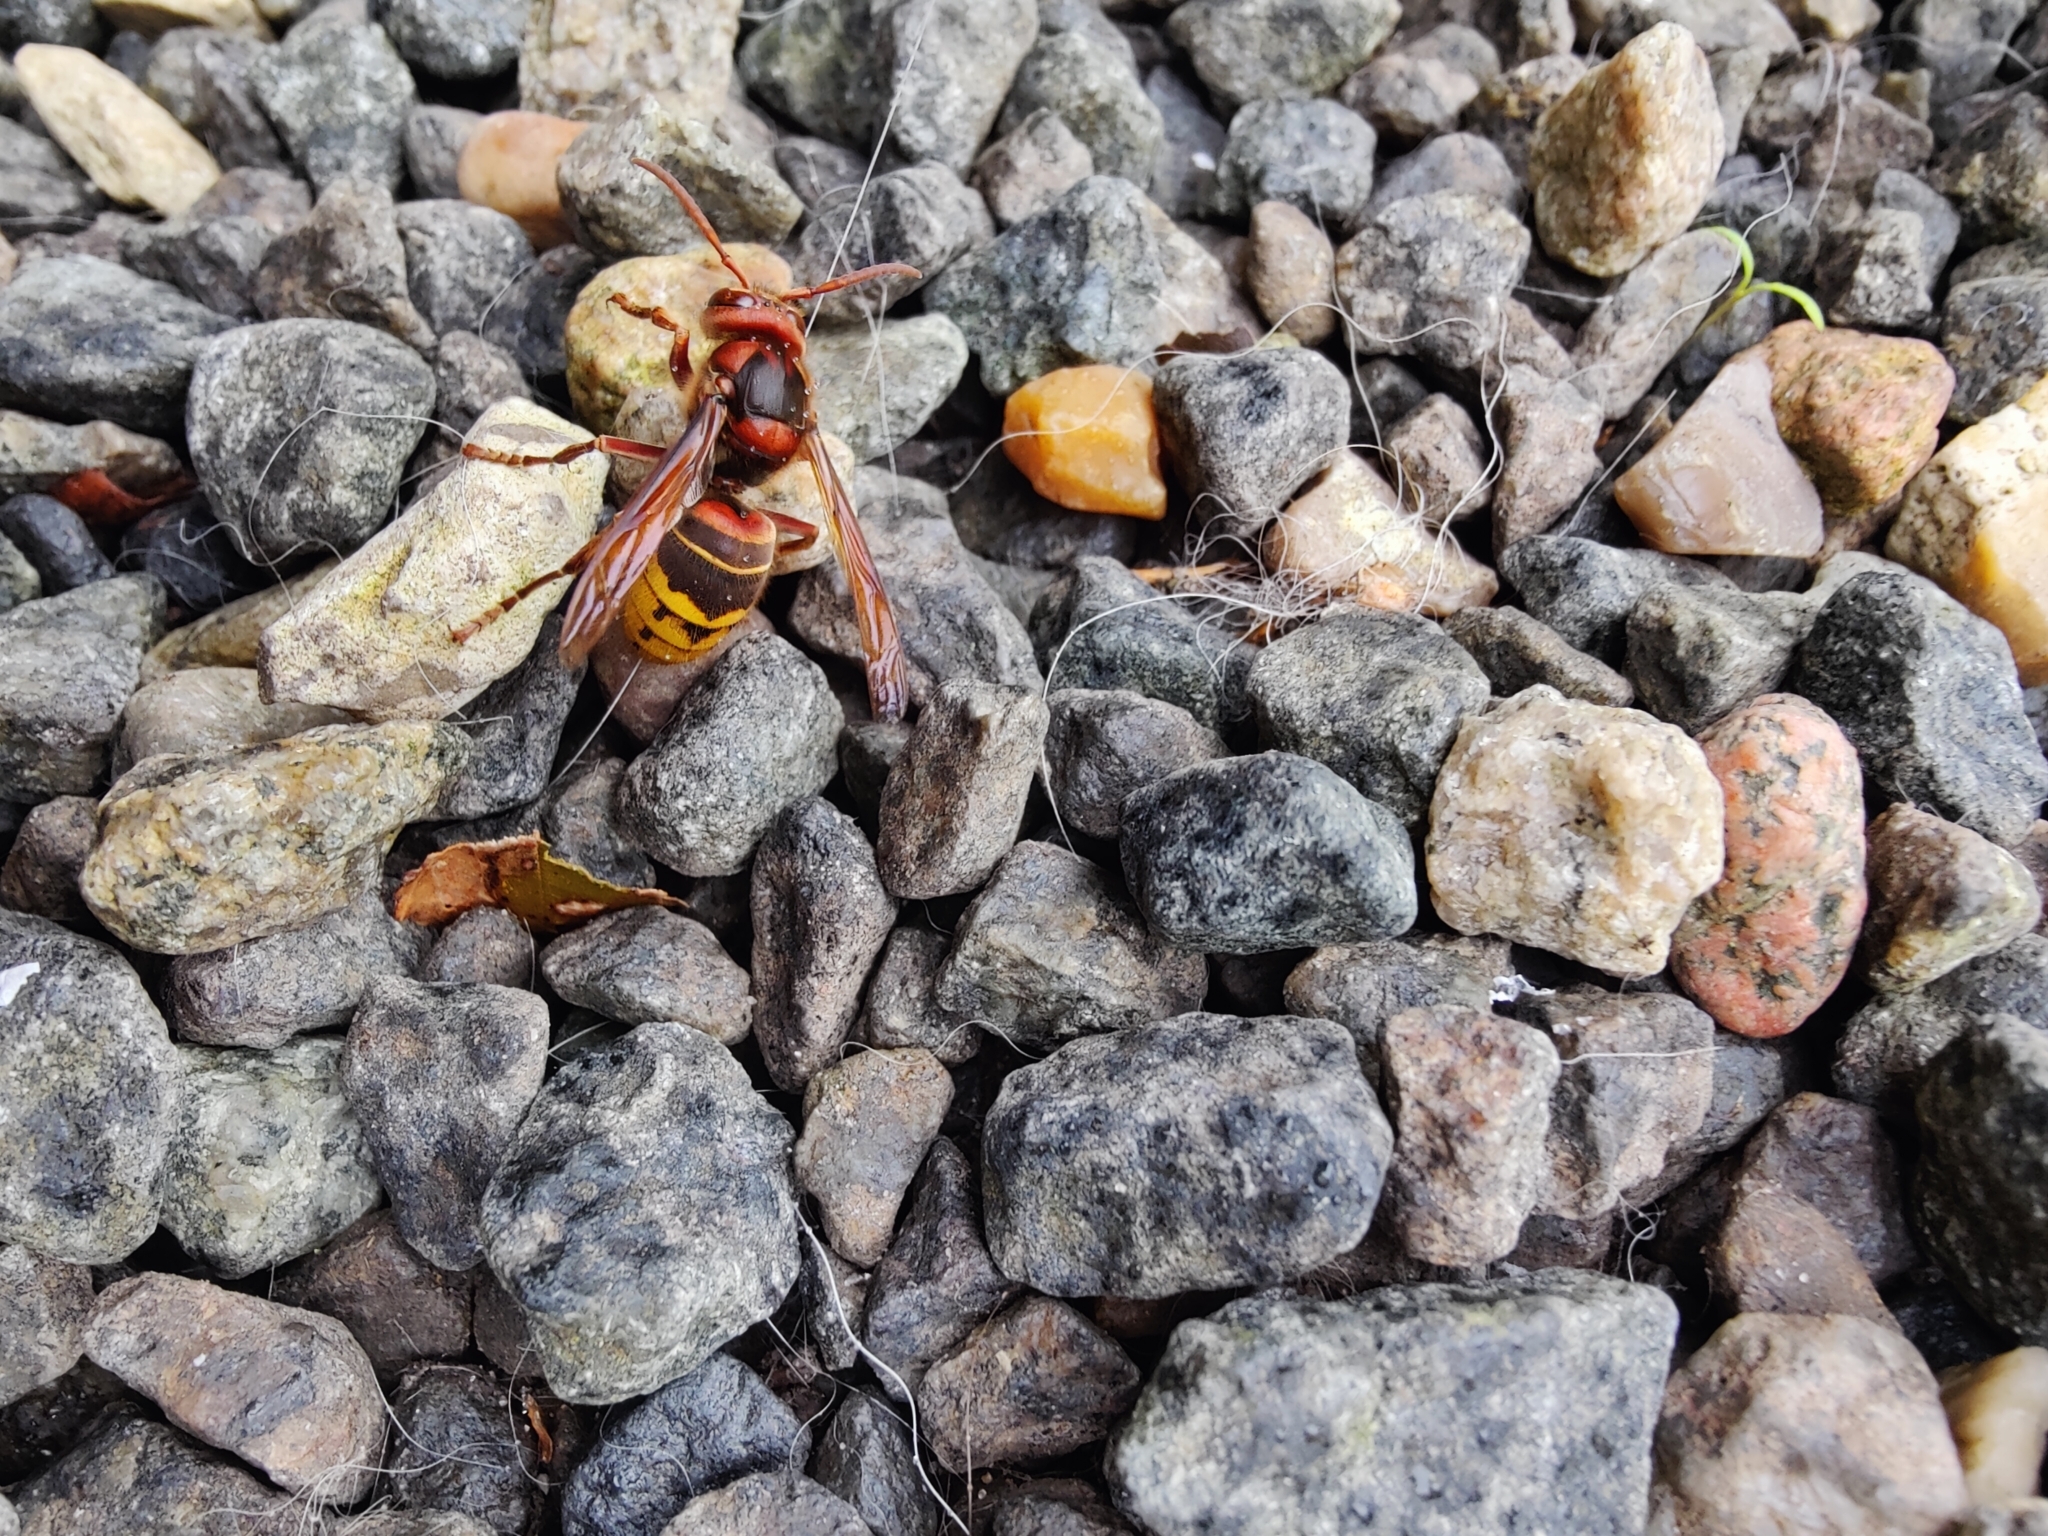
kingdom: Animalia
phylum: Arthropoda
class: Insecta
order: Hymenoptera
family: Vespidae
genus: Vespa
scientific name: Vespa crabro
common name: Hornet
